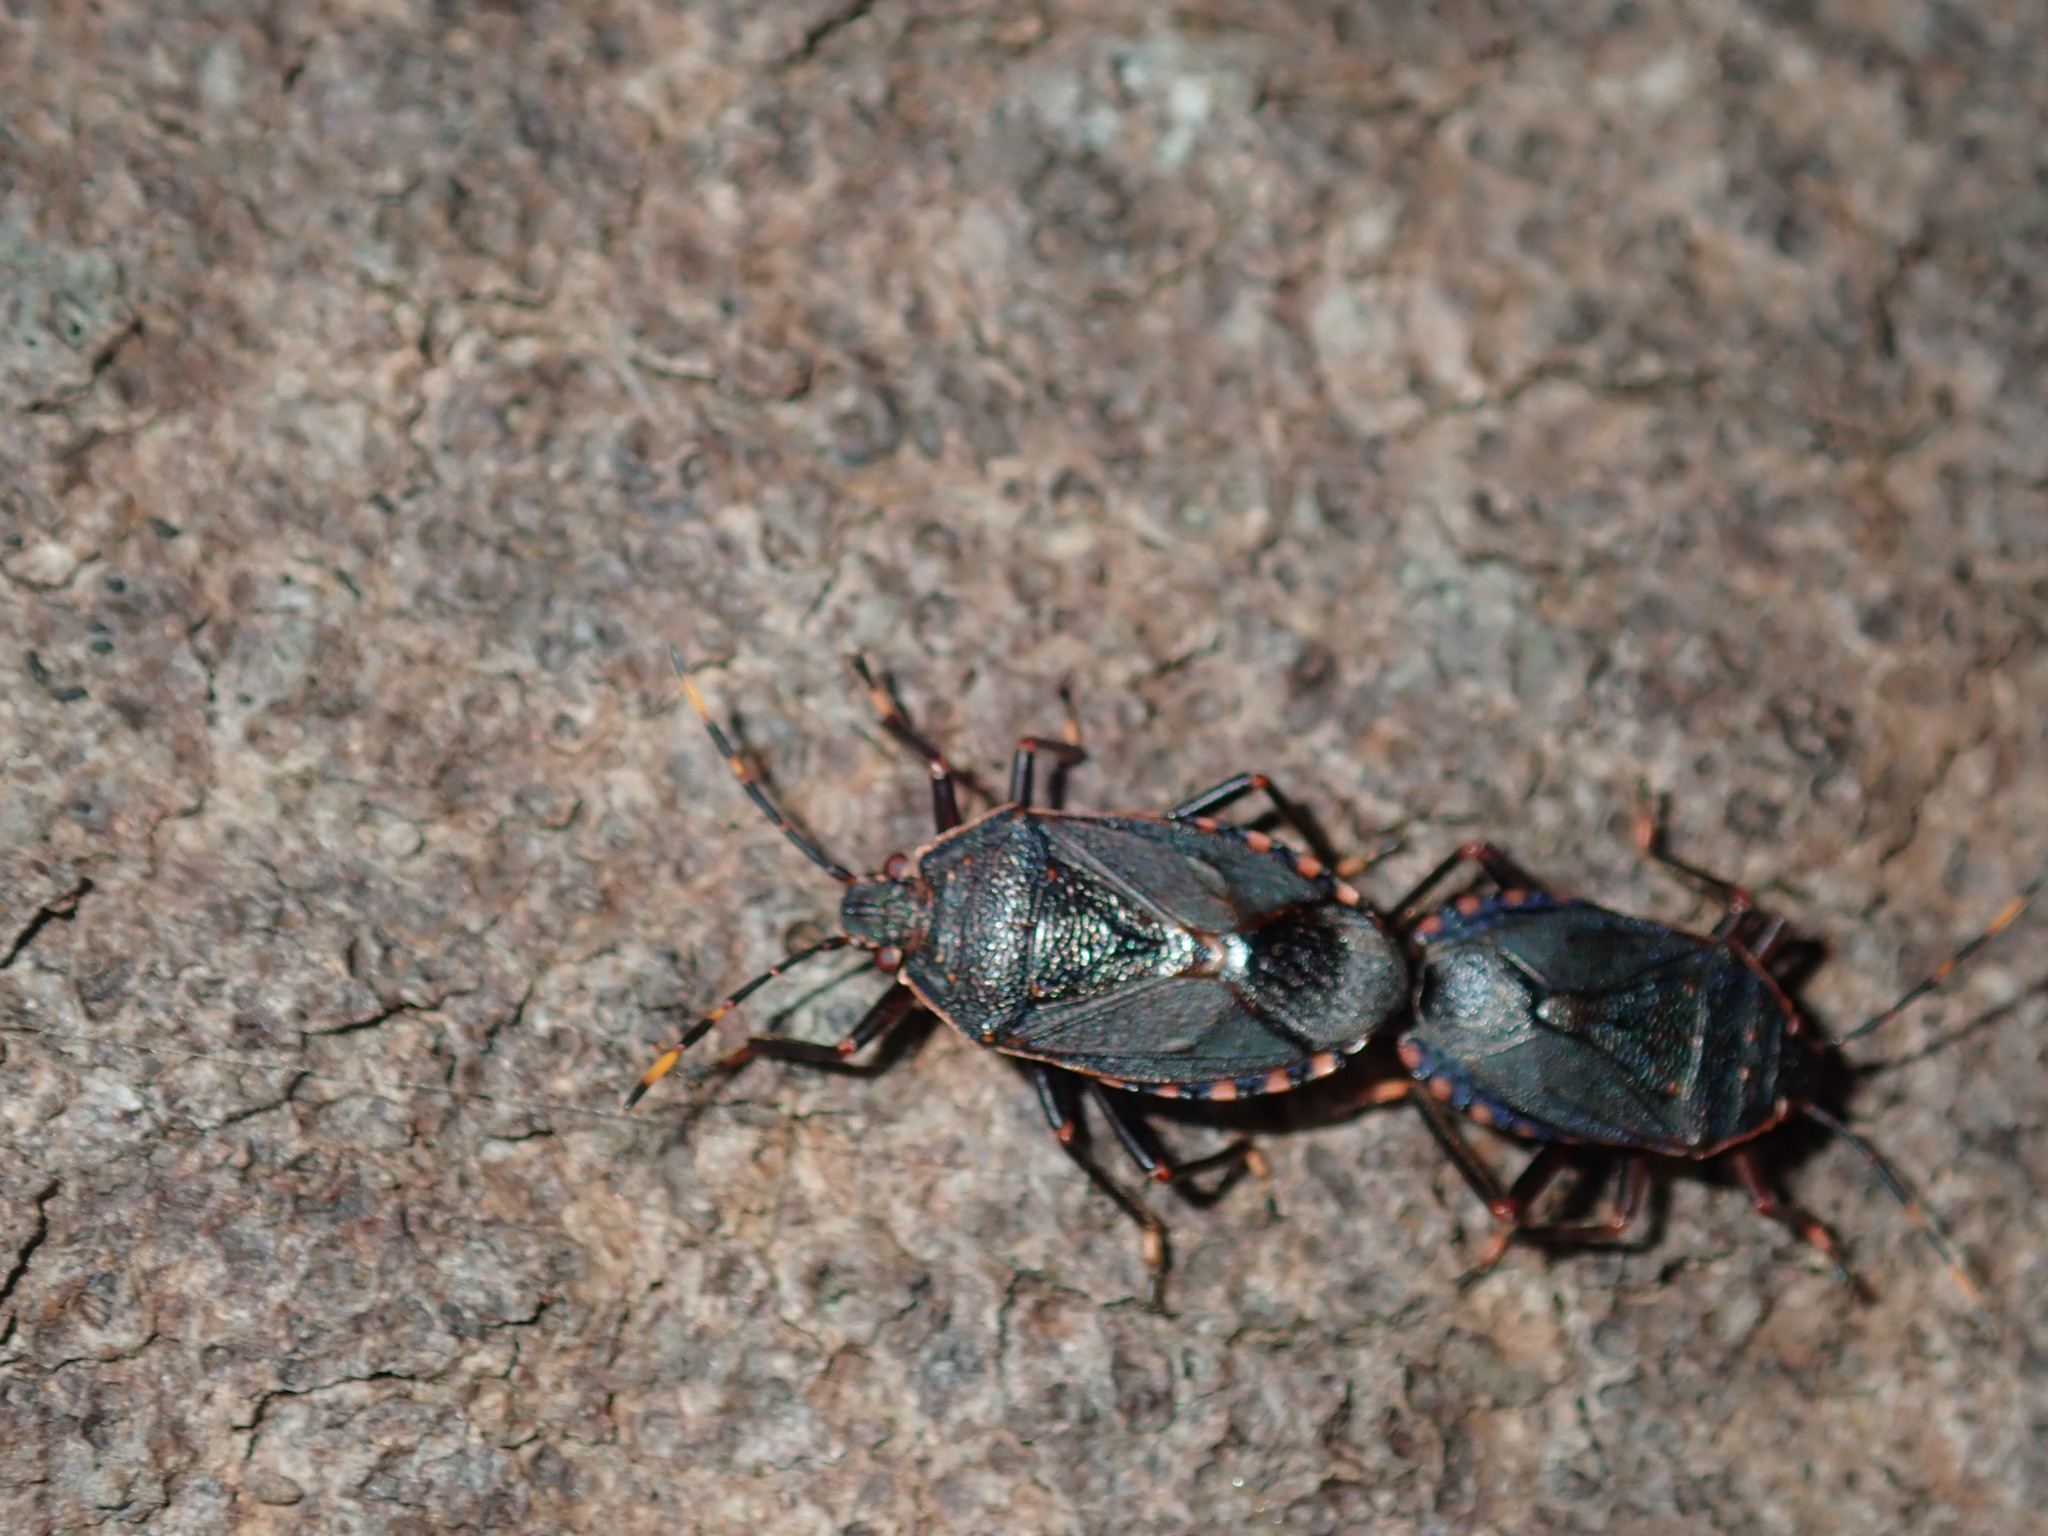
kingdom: Animalia
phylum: Arthropoda
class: Insecta
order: Hemiptera
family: Pentatomidae
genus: Notius
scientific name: Notius
